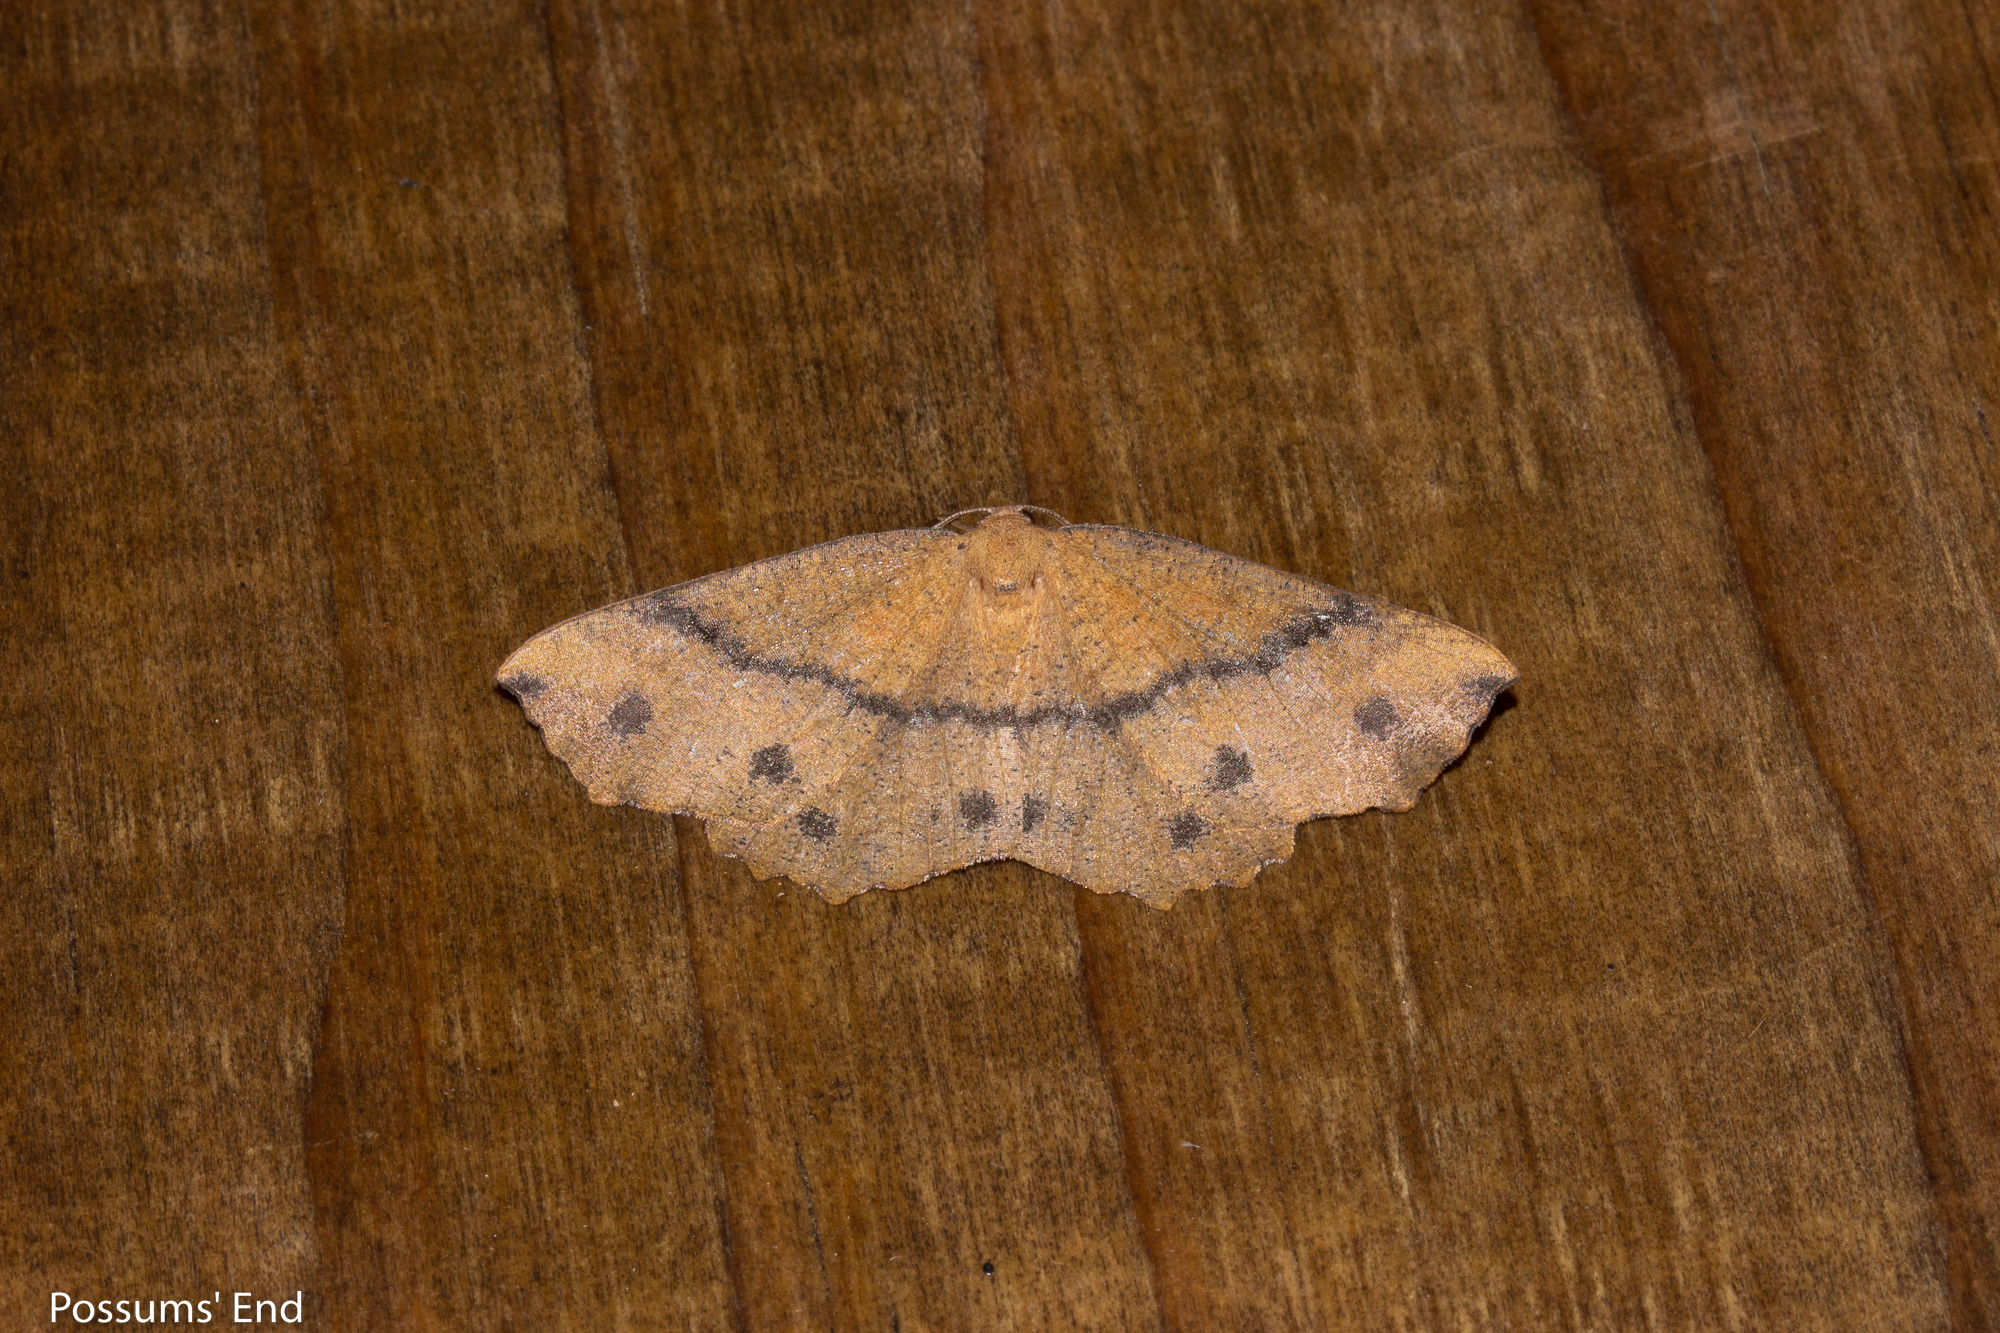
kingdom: Animalia
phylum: Arthropoda
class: Insecta
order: Lepidoptera
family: Geometridae
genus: Xyridacma
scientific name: Xyridacma ustaria
